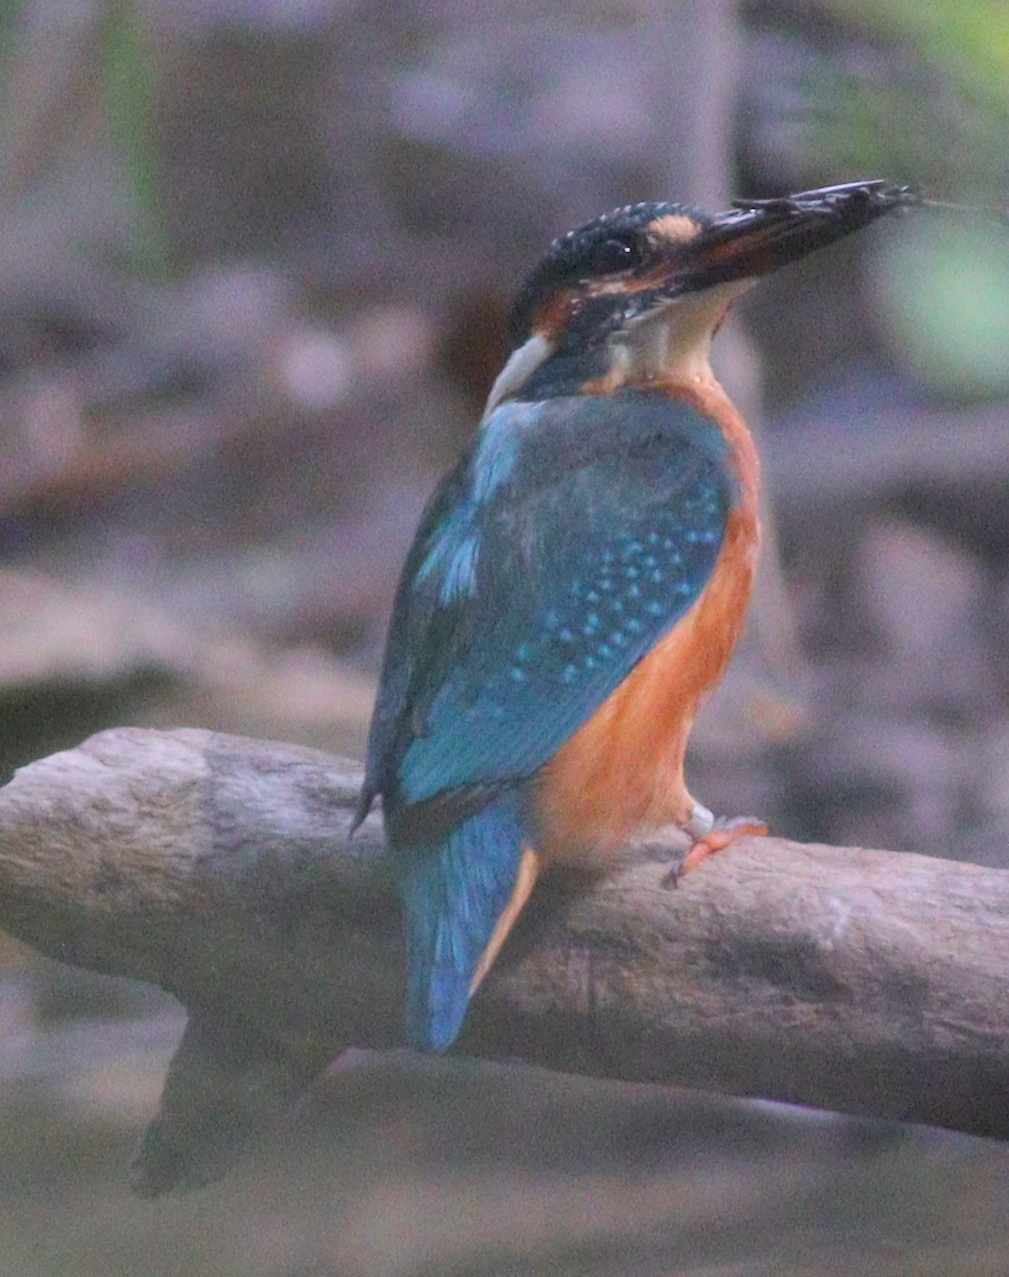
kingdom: Animalia
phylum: Chordata
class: Aves
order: Coraciiformes
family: Alcedinidae
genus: Alcedo
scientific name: Alcedo atthis
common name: Common kingfisher
